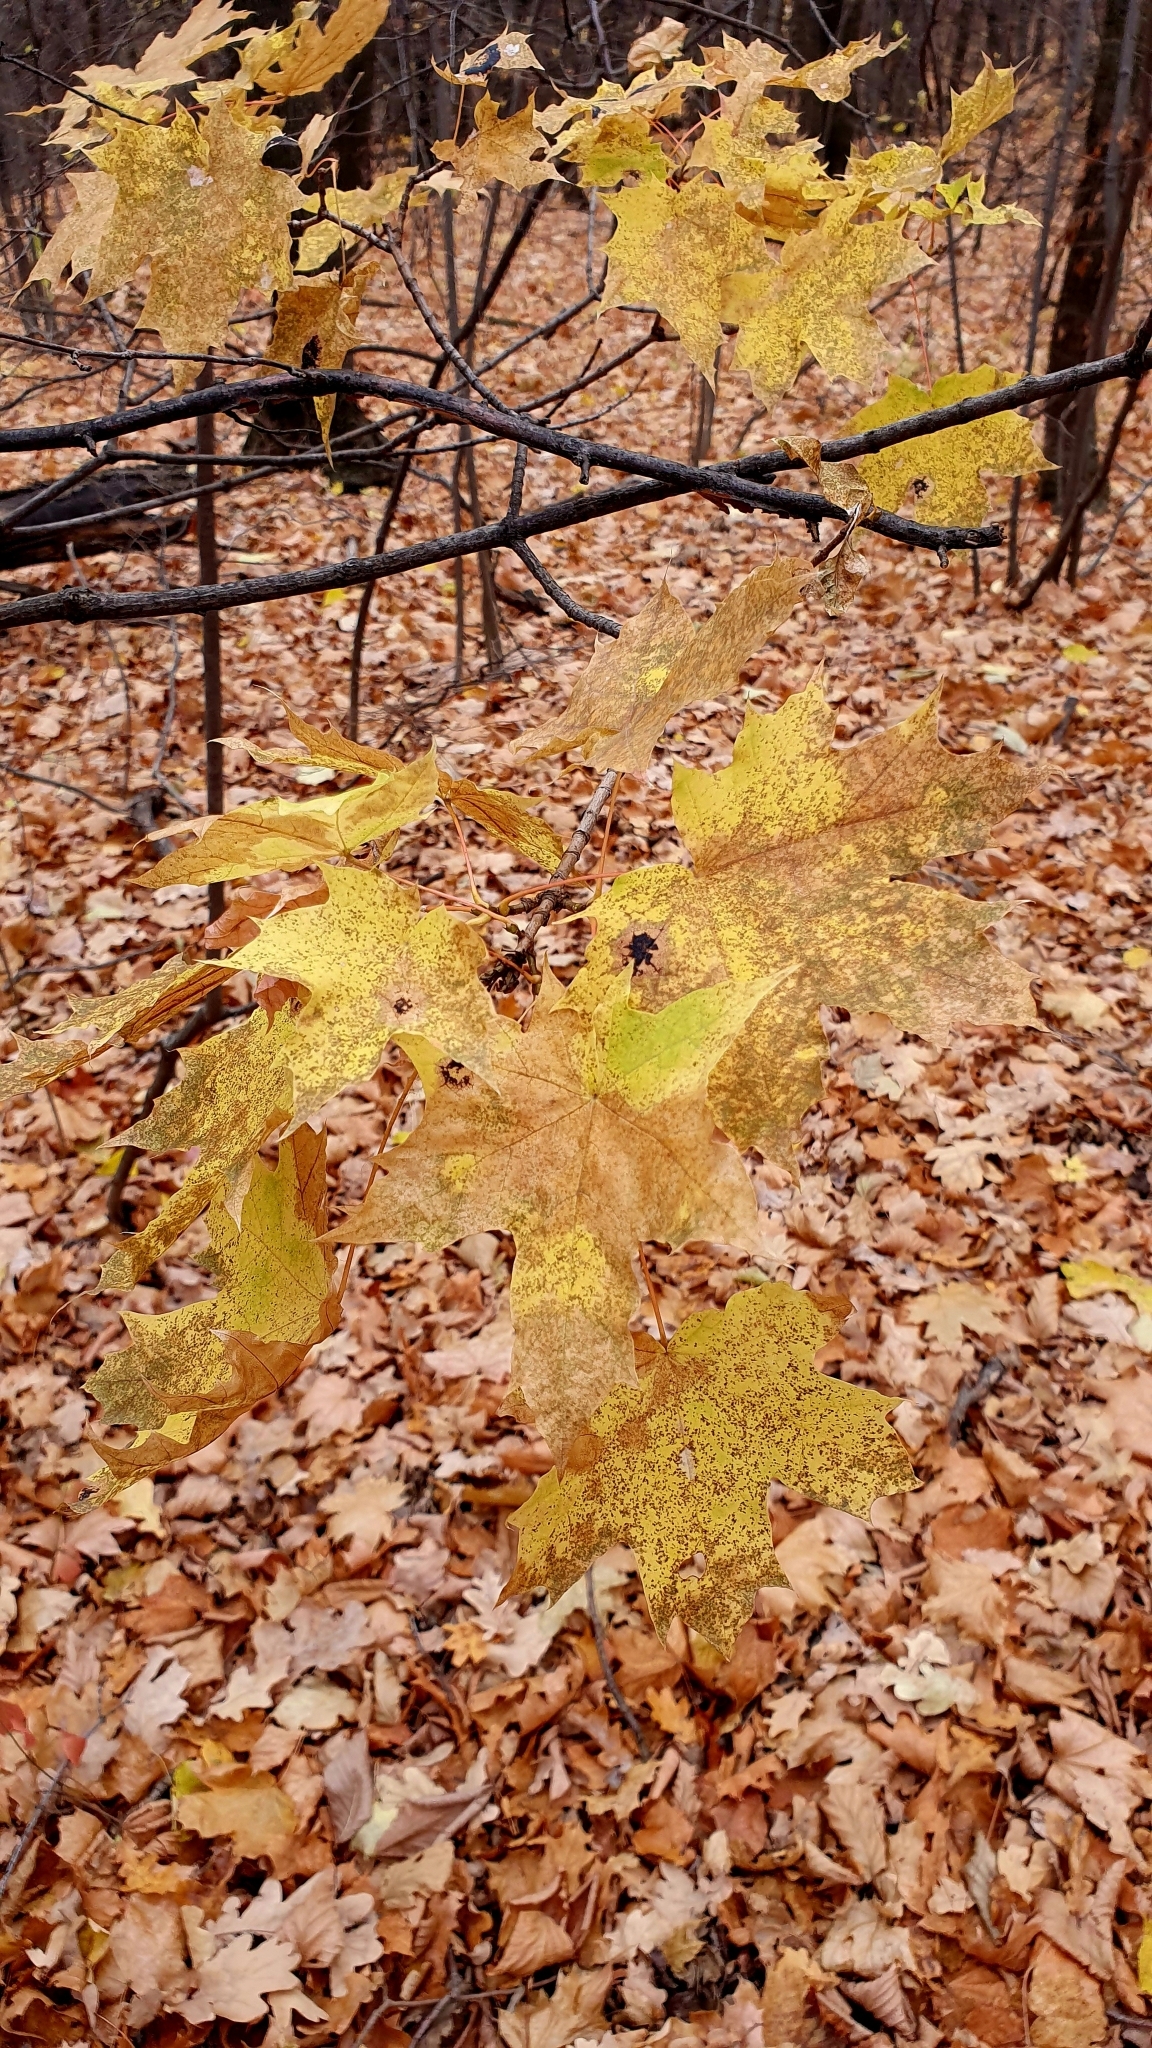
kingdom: Plantae
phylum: Tracheophyta
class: Magnoliopsida
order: Sapindales
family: Sapindaceae
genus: Acer
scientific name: Acer platanoides
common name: Norway maple
